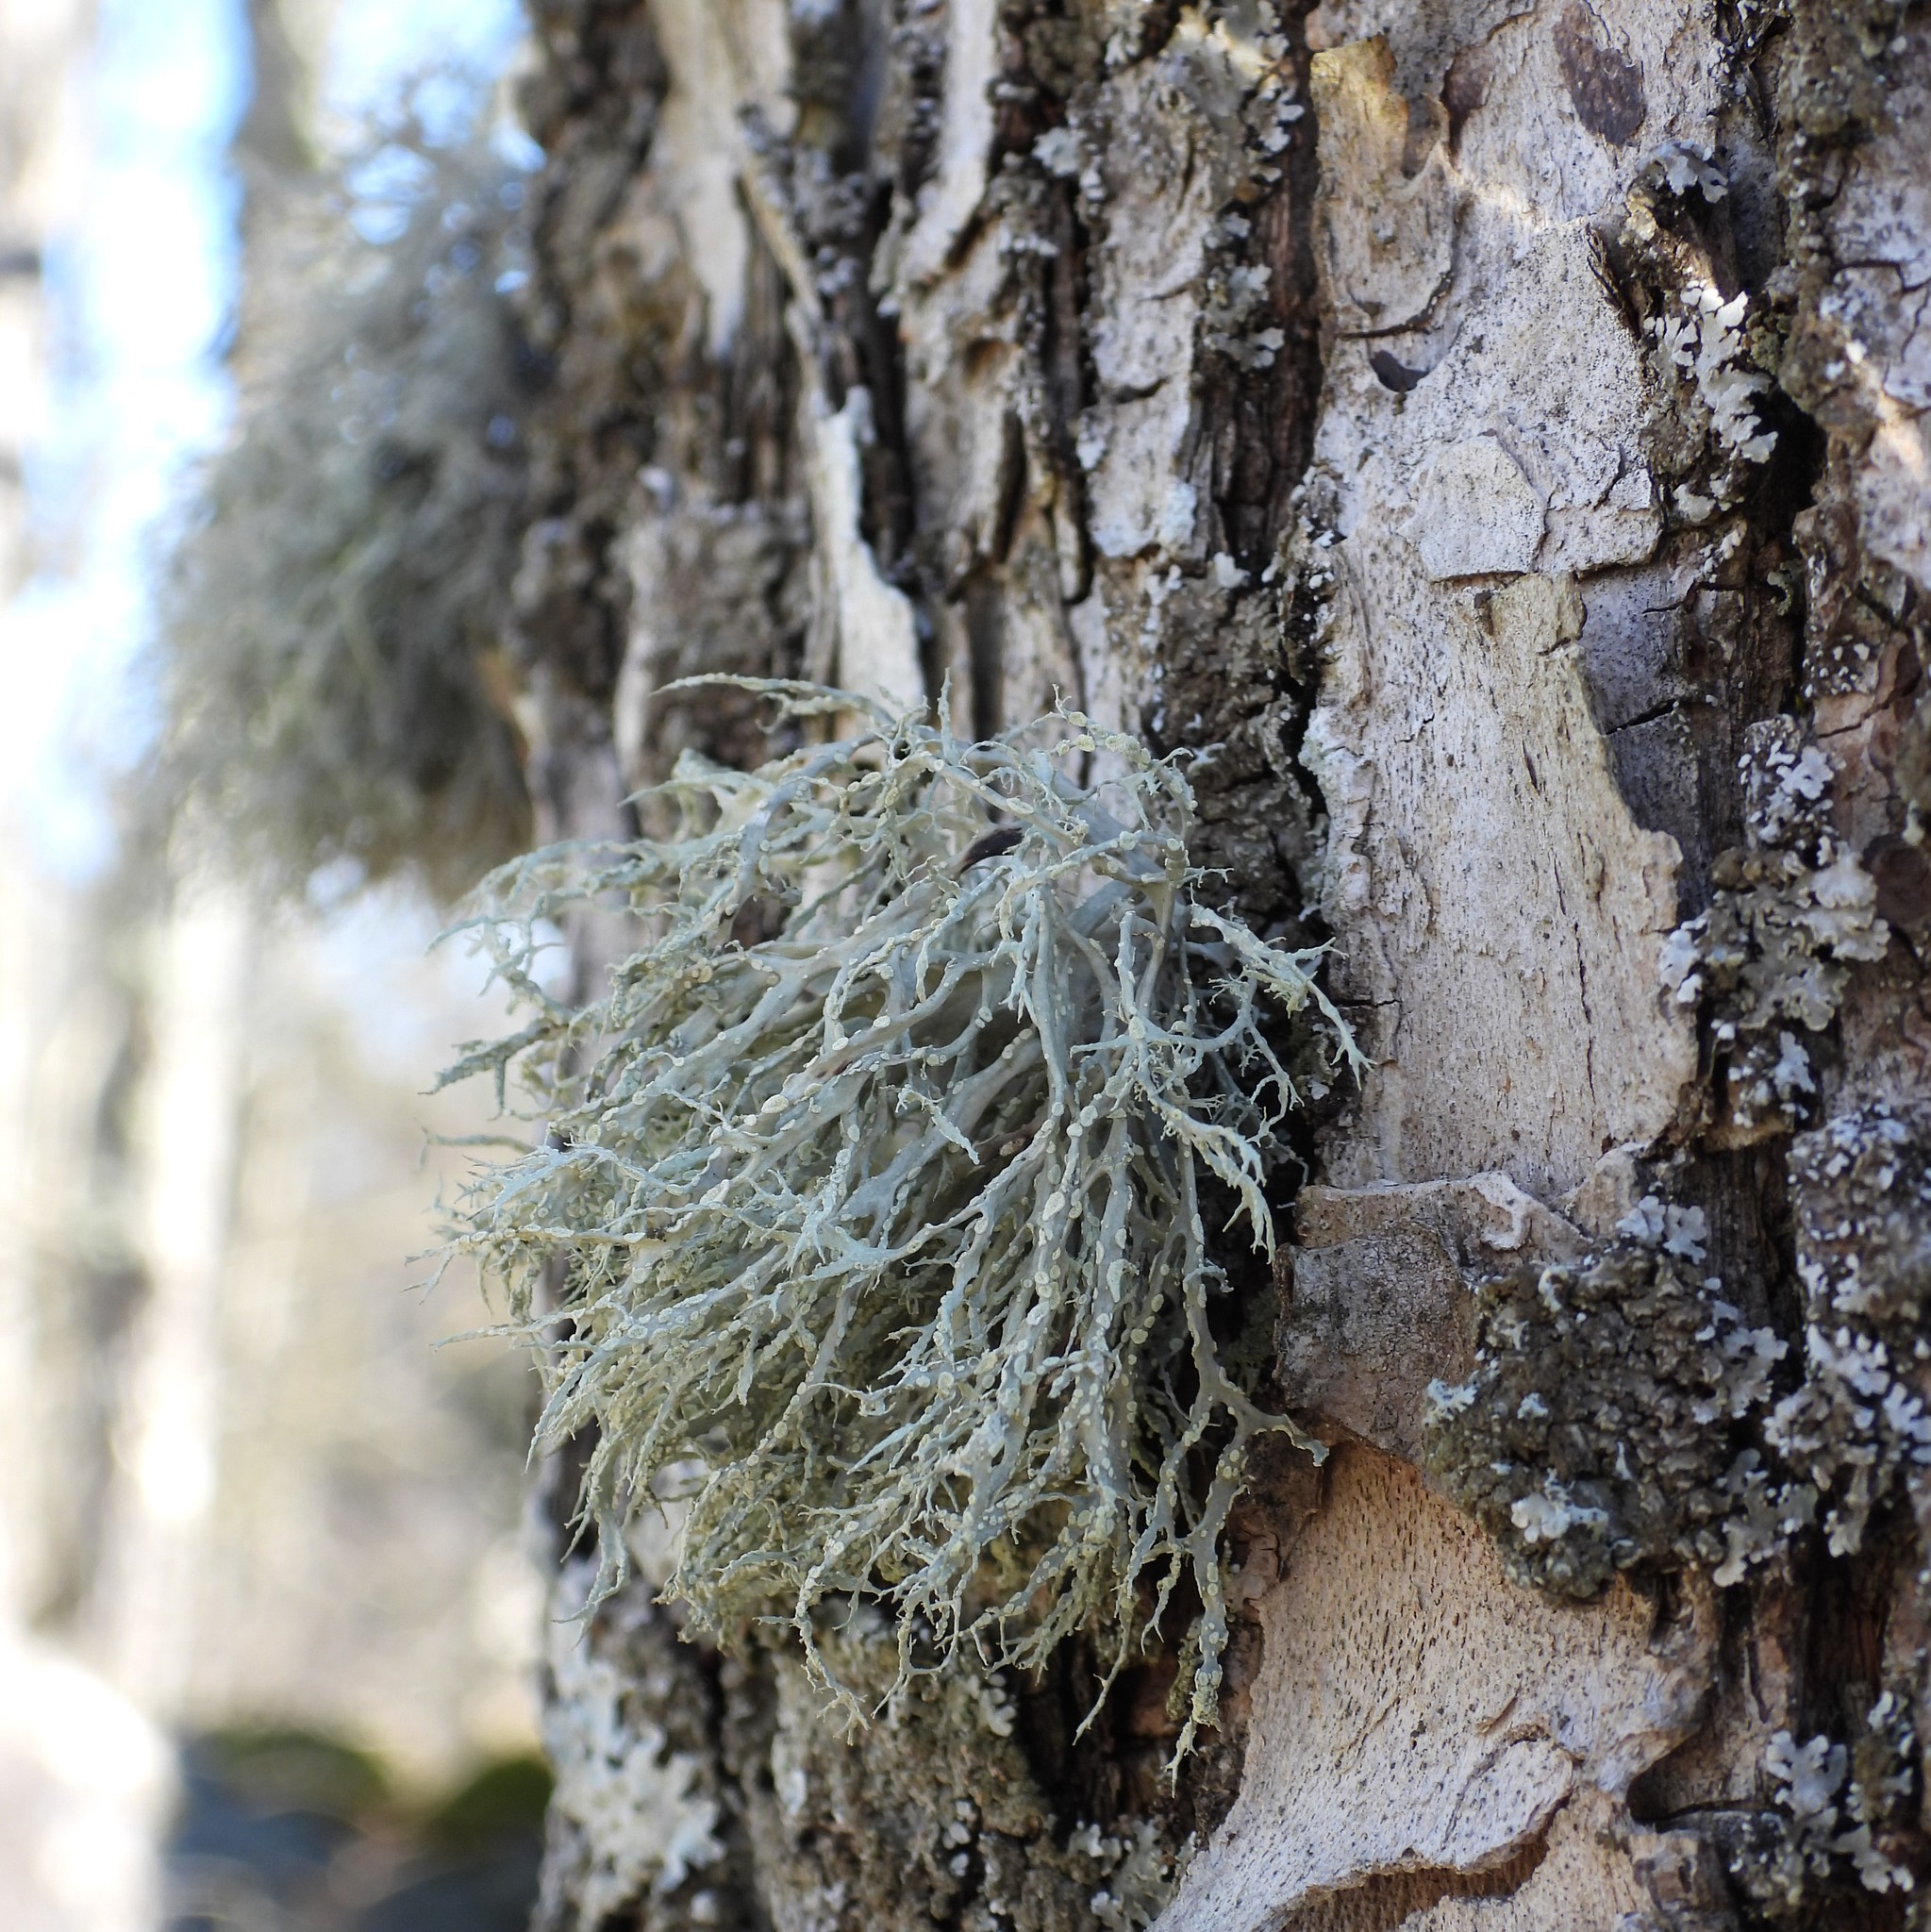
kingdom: Fungi
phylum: Ascomycota
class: Lecanoromycetes
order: Lecanorales
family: Ramalinaceae
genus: Ramalina
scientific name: Ramalina farinacea
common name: Farinose cartilage lichen
